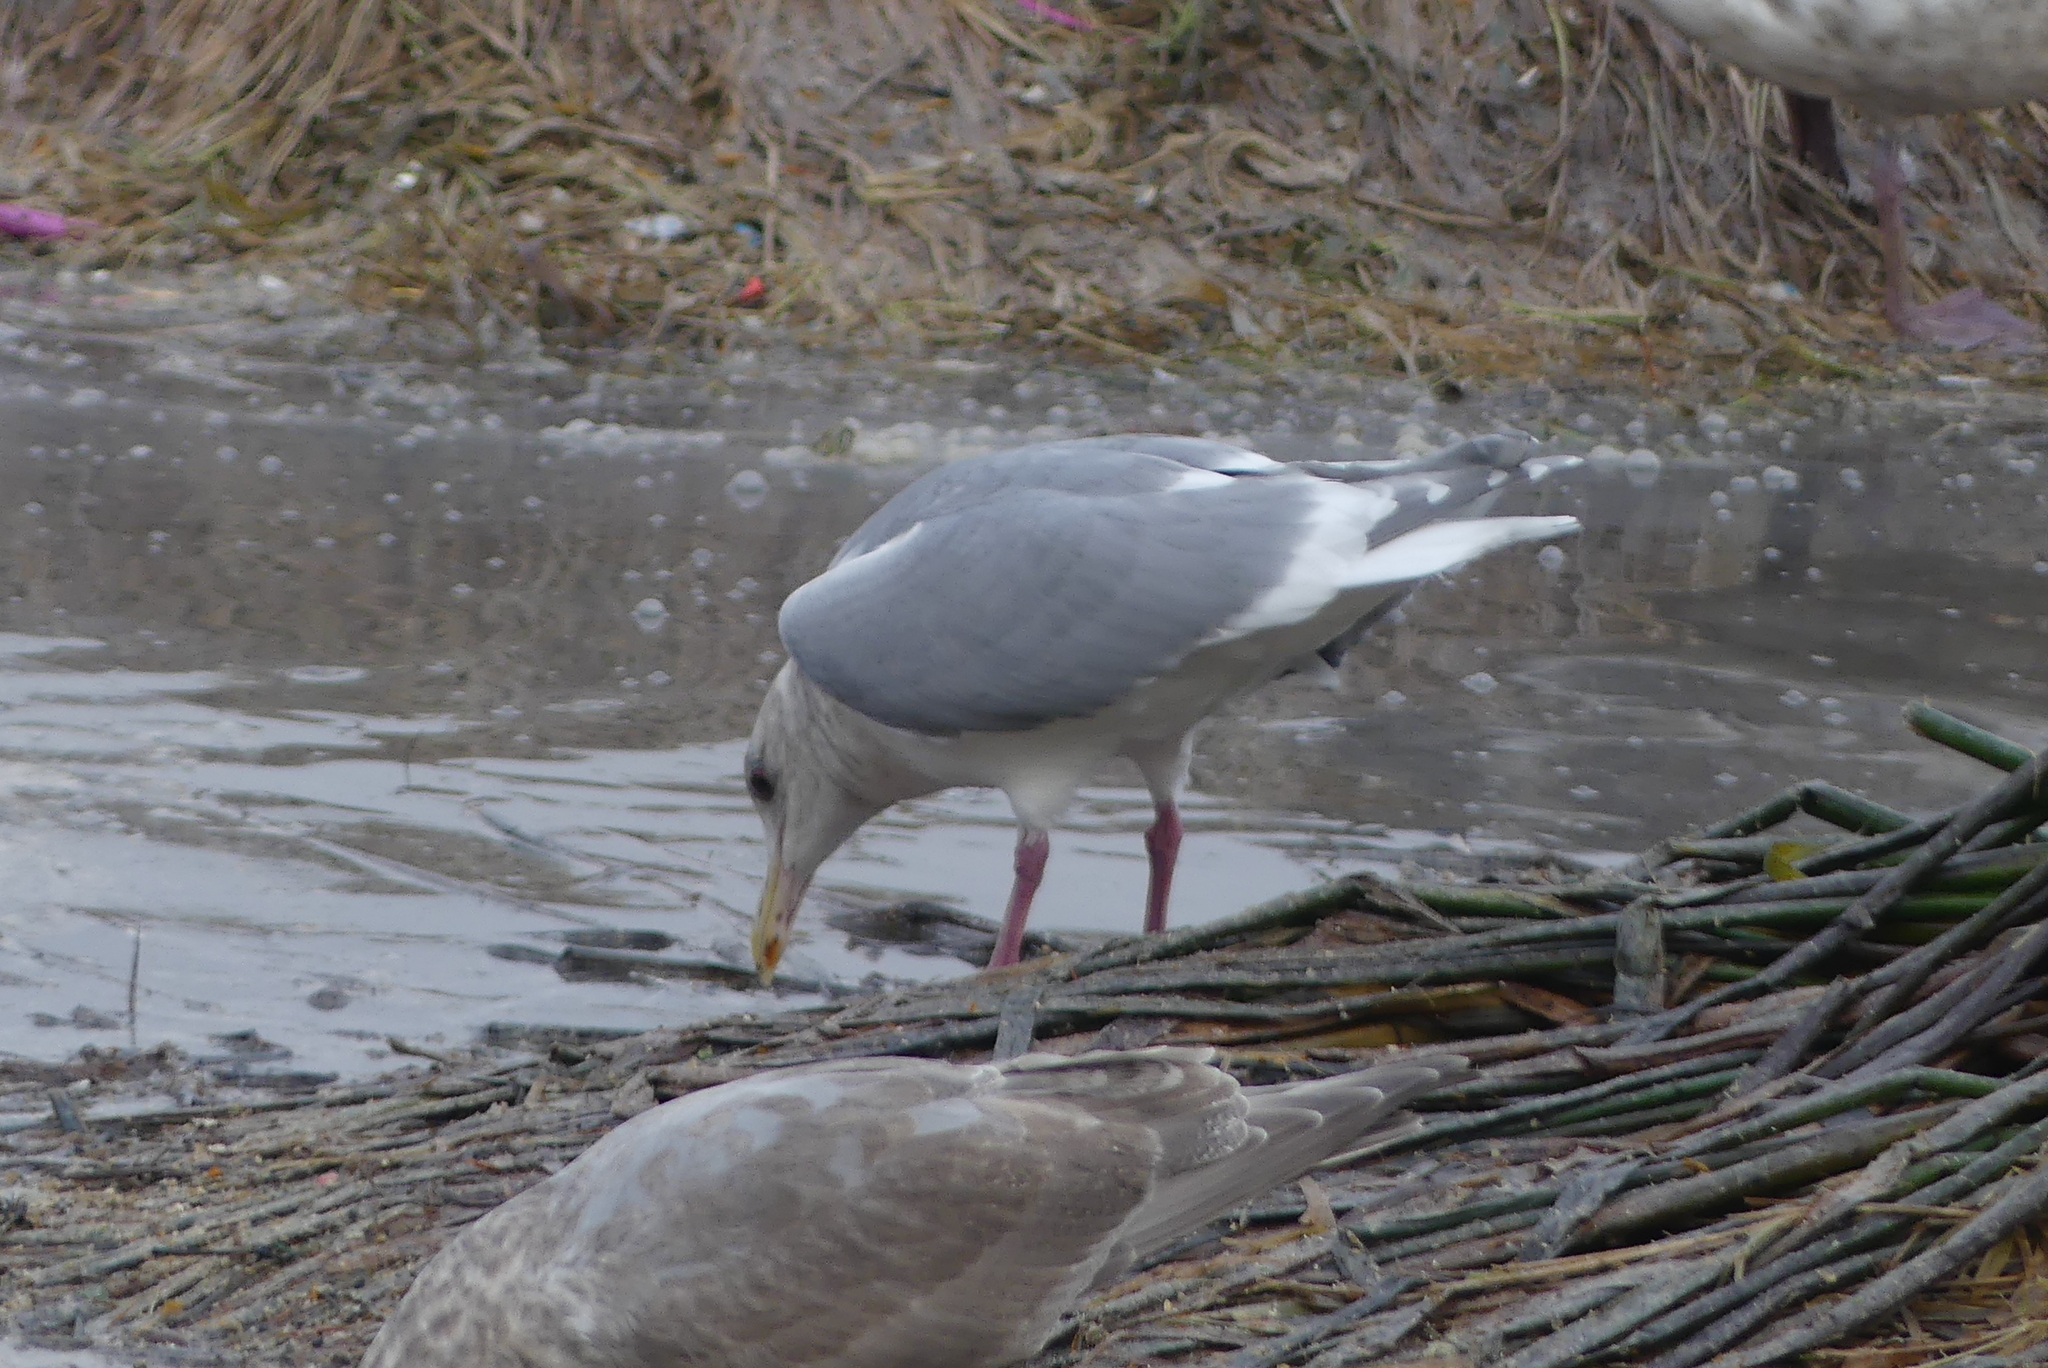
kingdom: Animalia
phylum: Chordata
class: Aves
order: Charadriiformes
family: Laridae
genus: Larus
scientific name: Larus glaucoides
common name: Iceland gull
